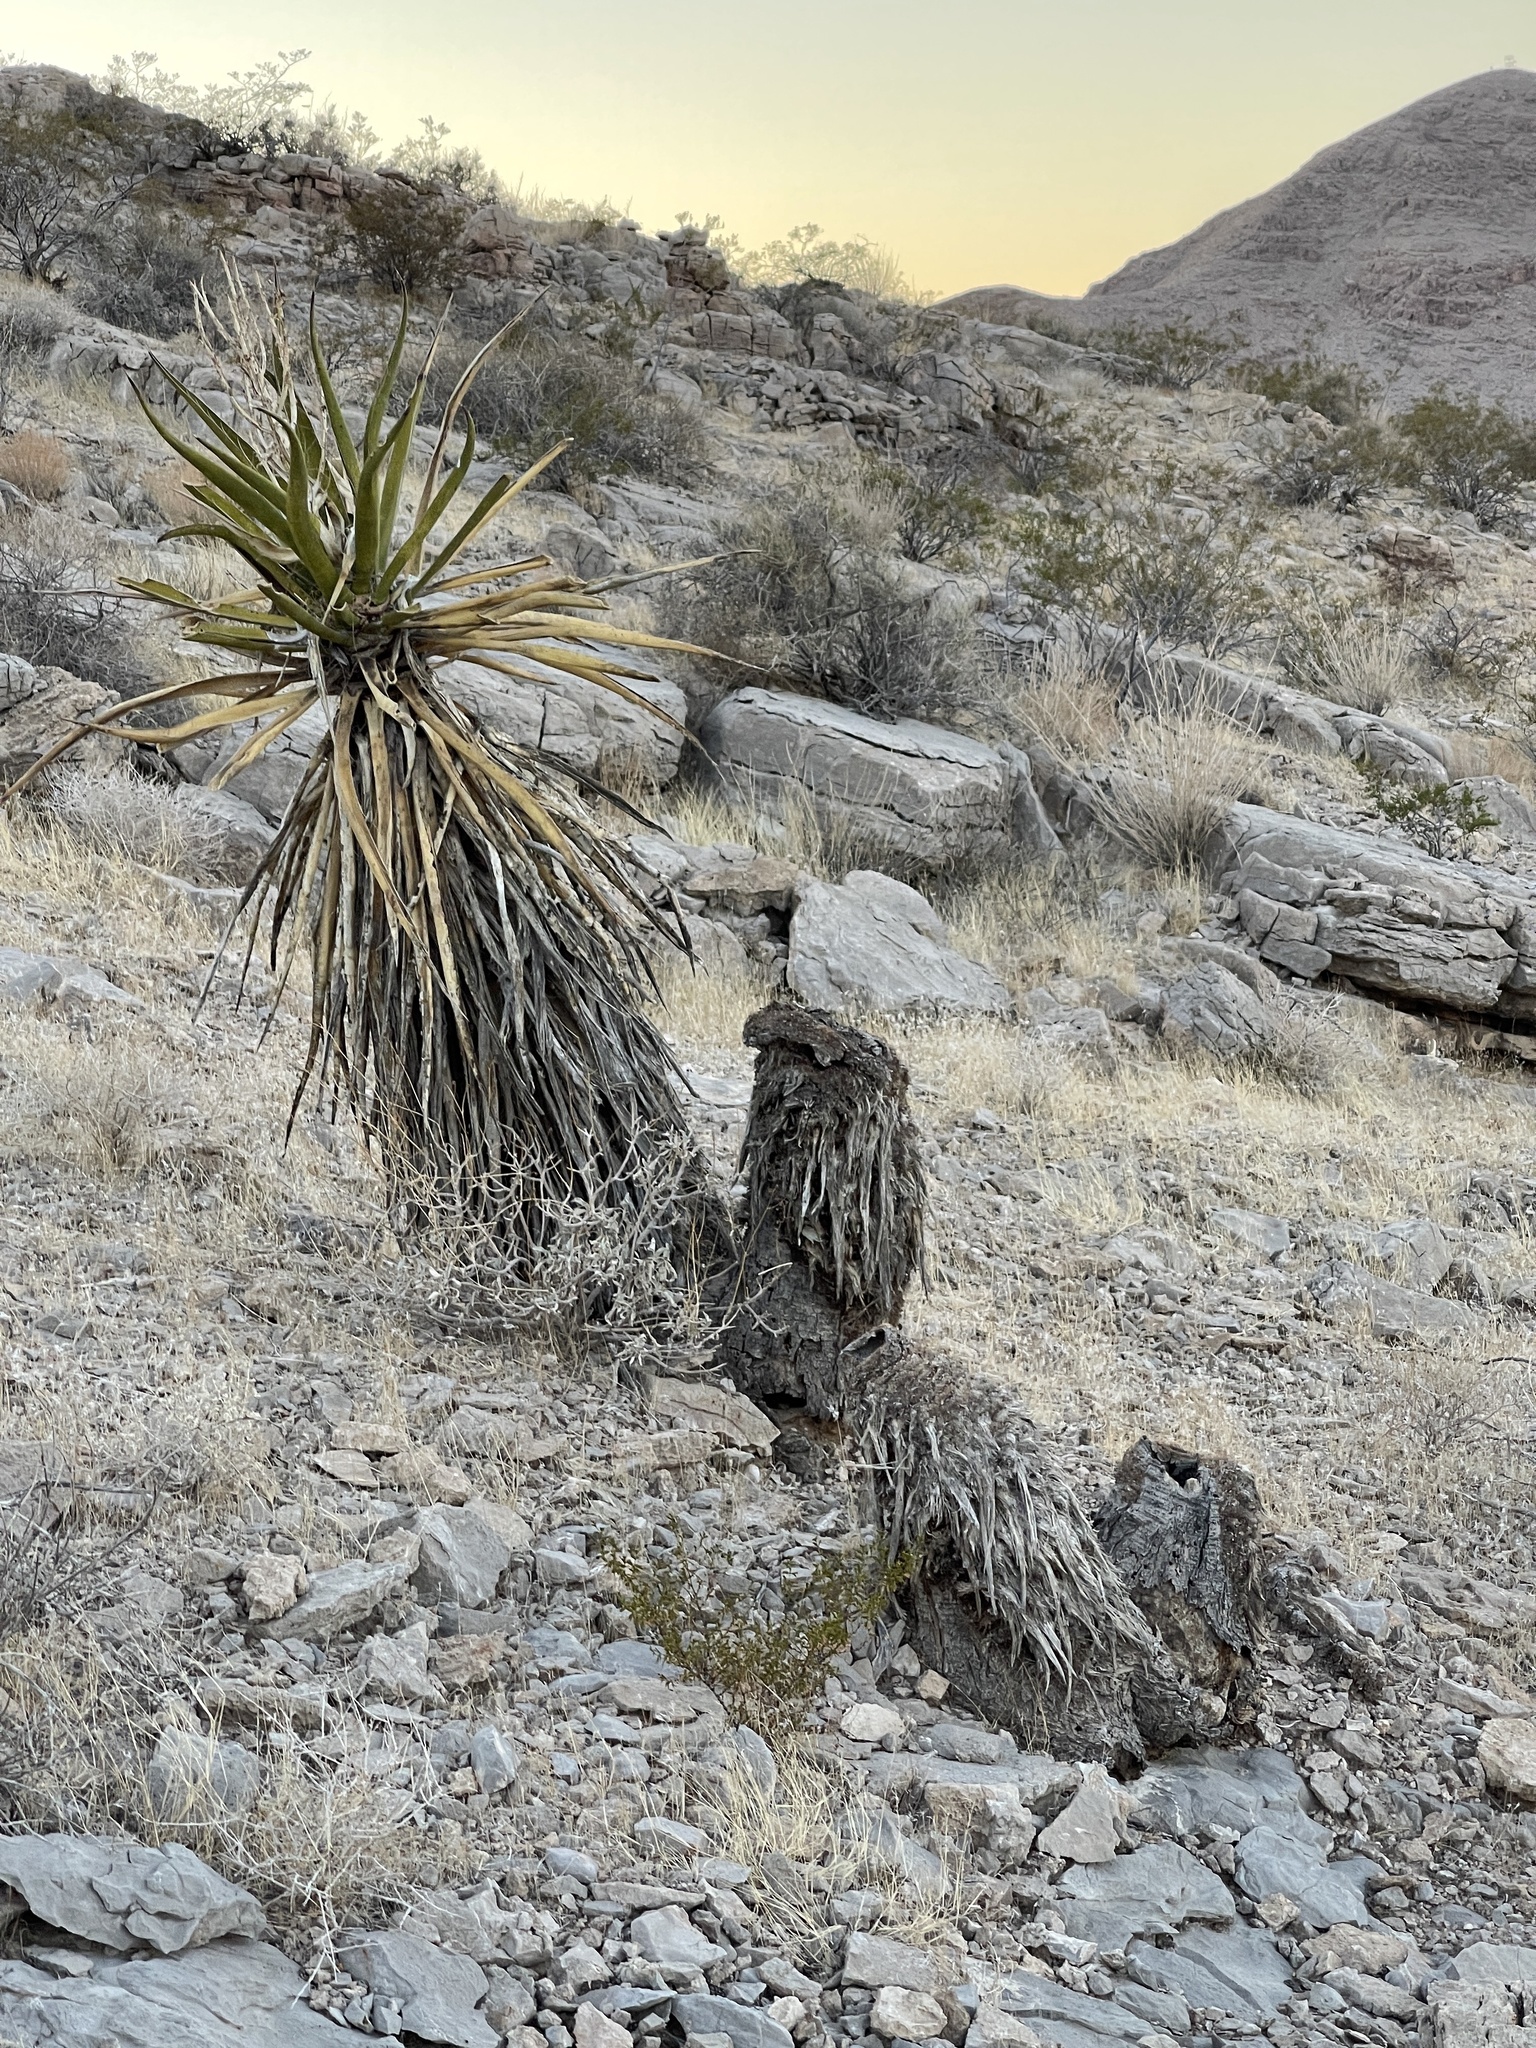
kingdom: Plantae
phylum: Tracheophyta
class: Liliopsida
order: Asparagales
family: Asparagaceae
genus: Yucca
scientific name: Yucca schidigera
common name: Mojave yucca
